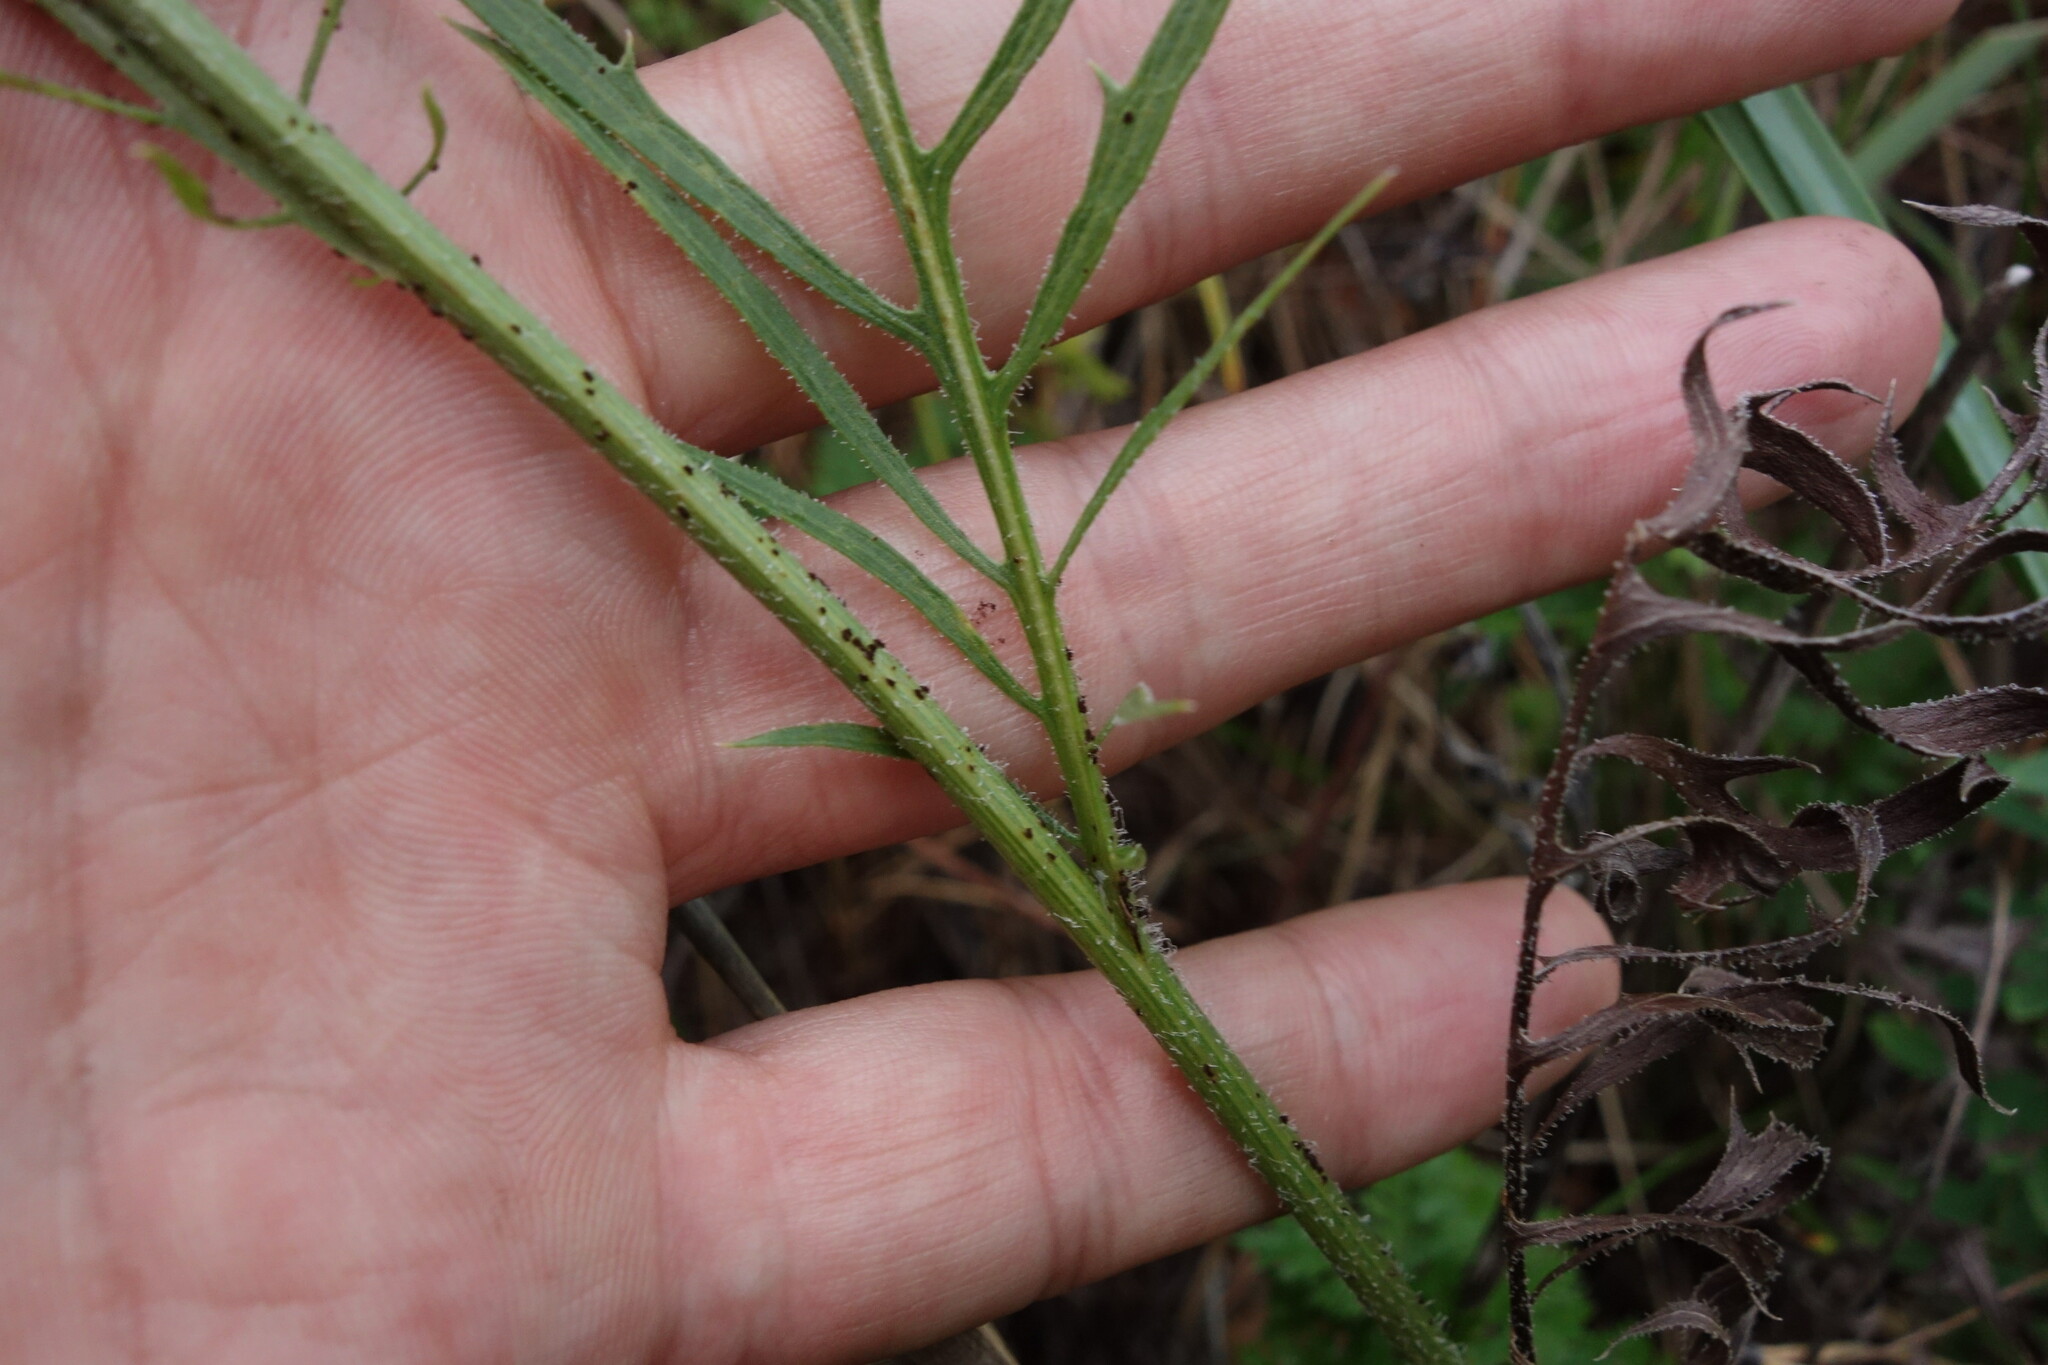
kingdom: Plantae
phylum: Tracheophyta
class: Magnoliopsida
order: Asterales
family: Asteraceae
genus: Klasea
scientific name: Klasea centauroides
